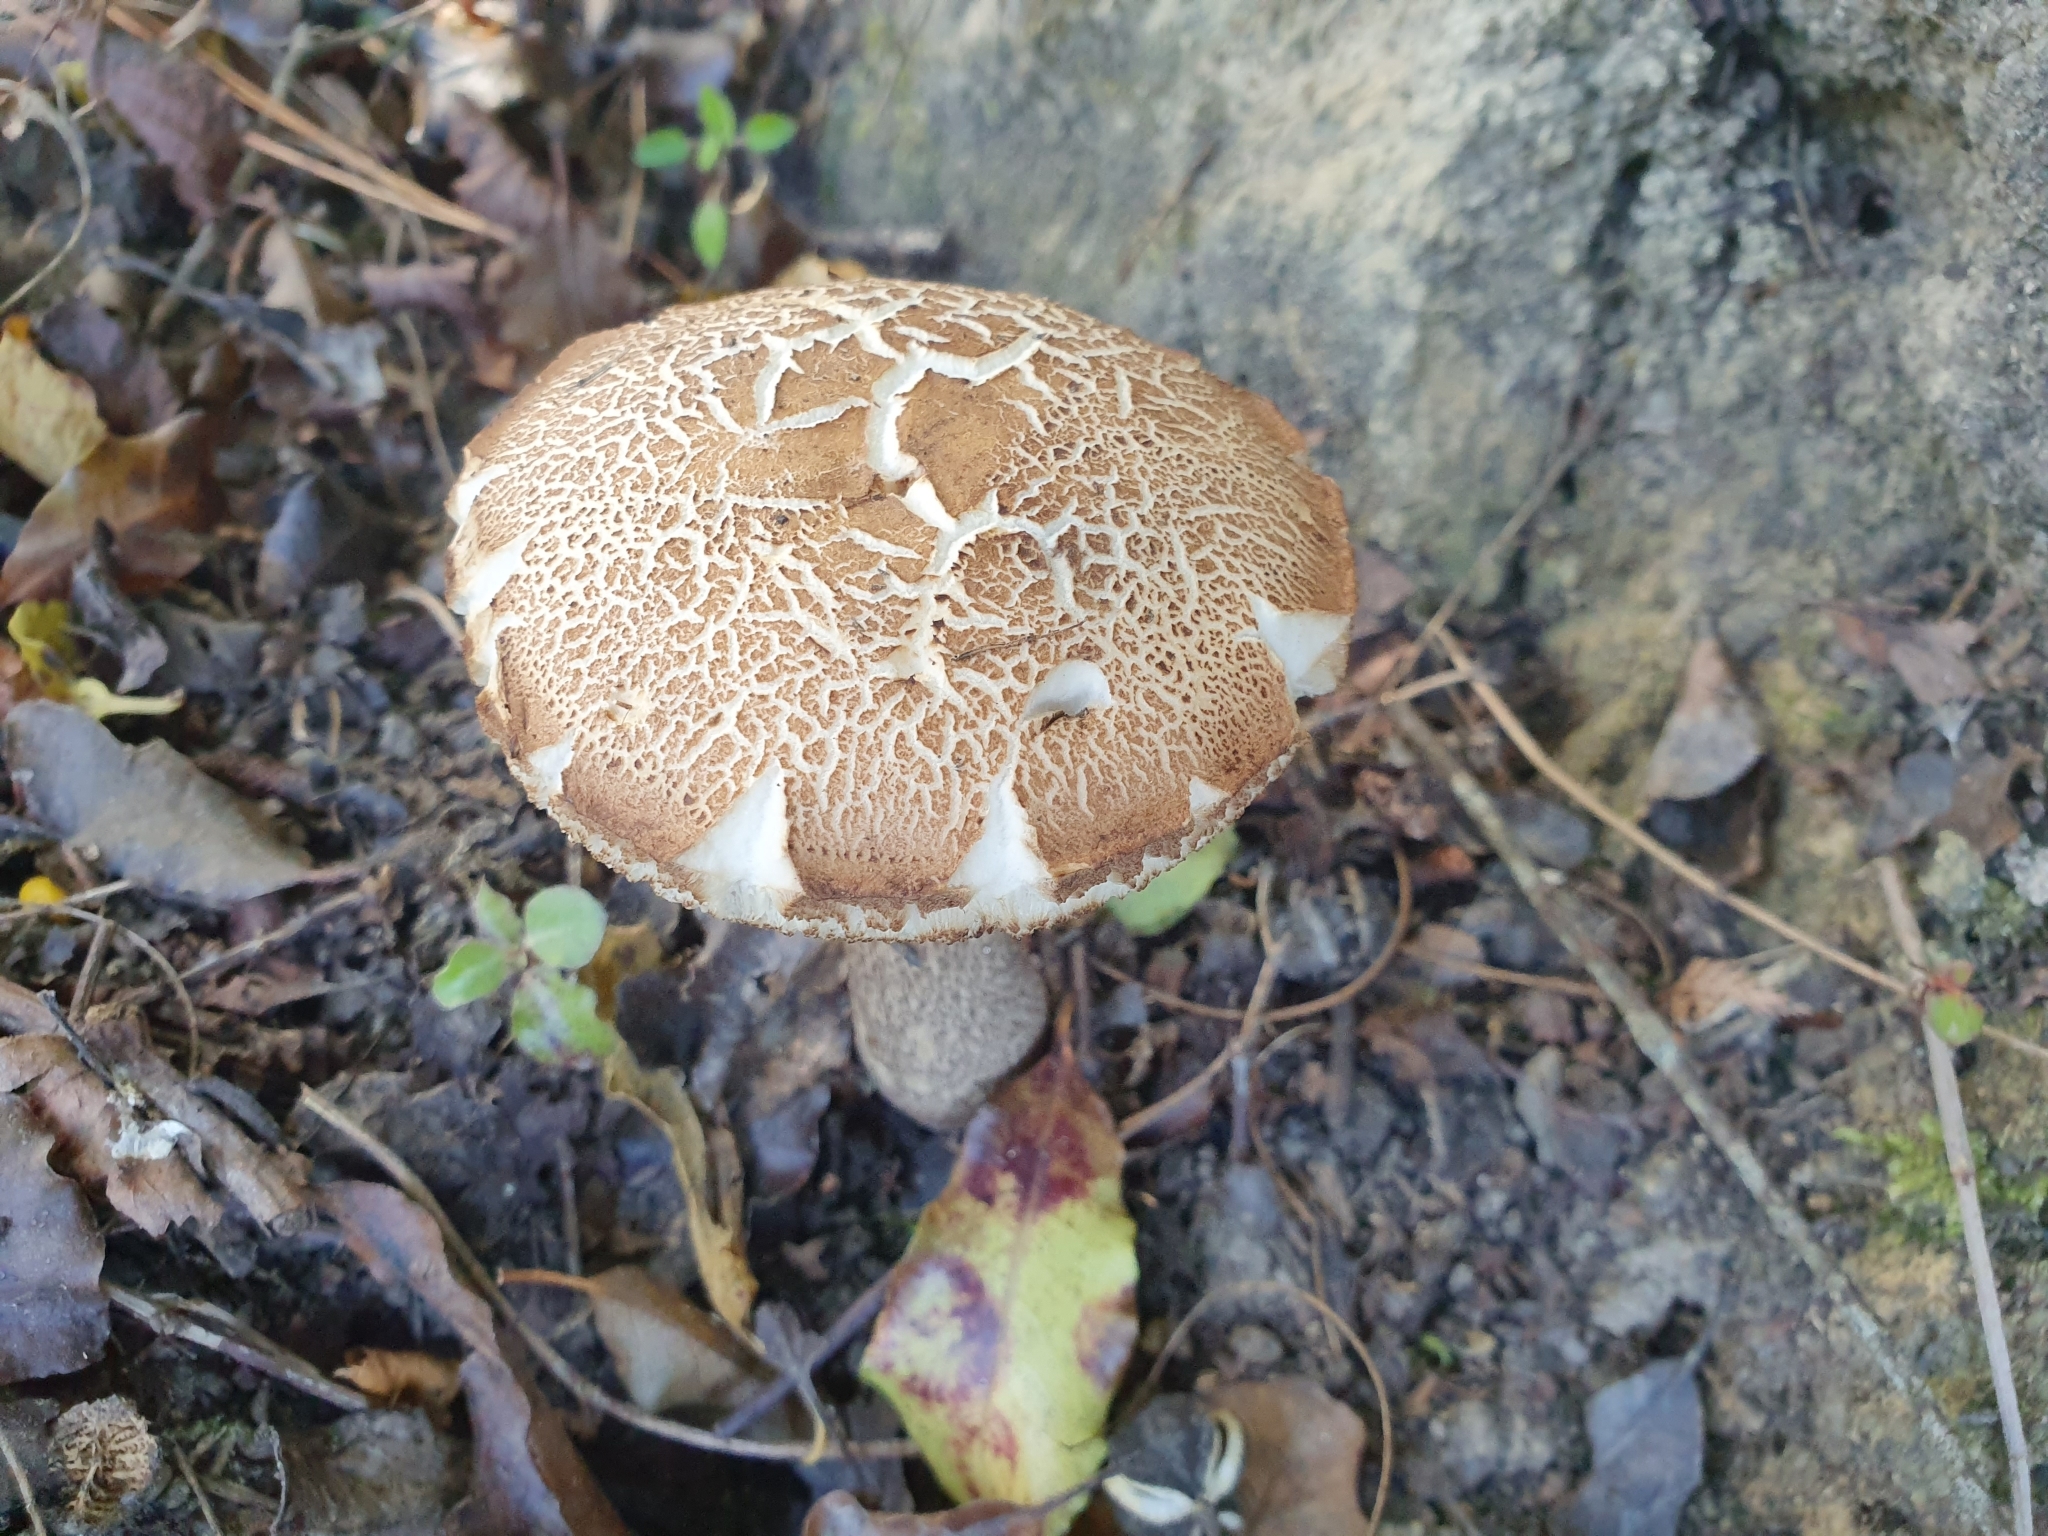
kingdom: Fungi
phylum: Basidiomycota
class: Agaricomycetes
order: Boletales
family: Boletaceae
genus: Leccinum
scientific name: Leccinum scabrum
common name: Blushing bolete
